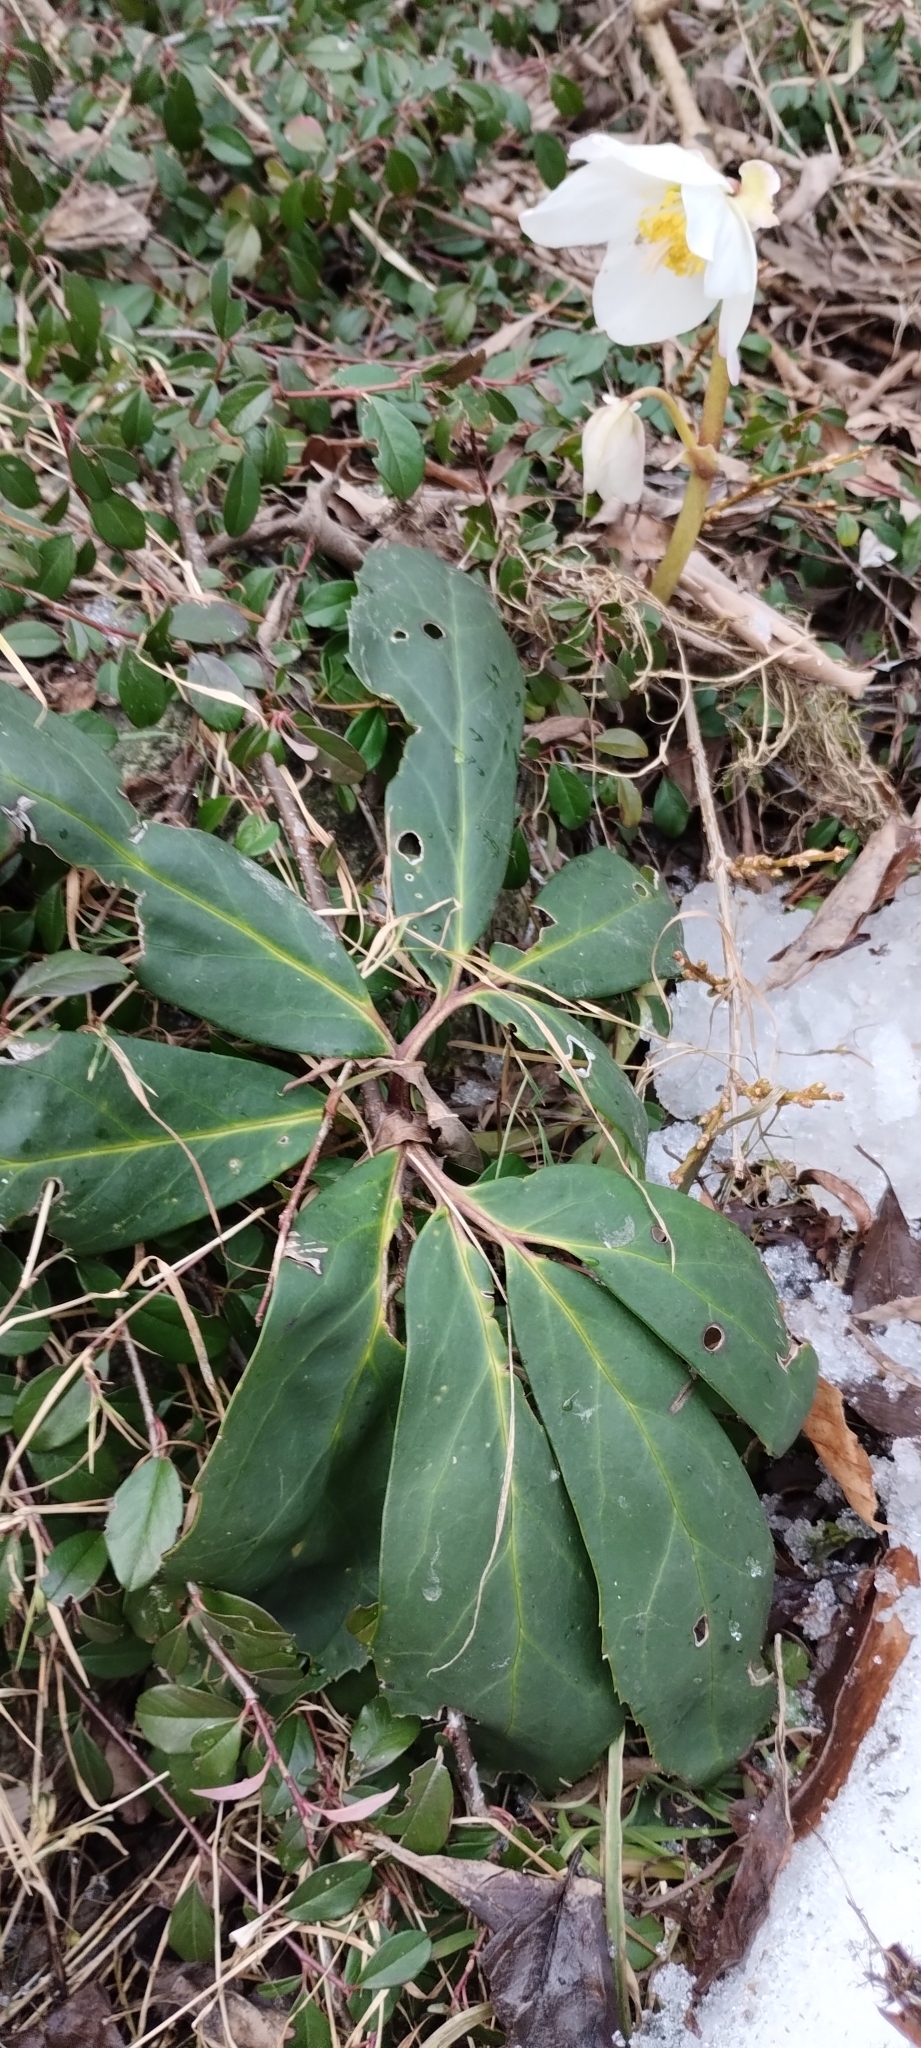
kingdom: Plantae
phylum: Tracheophyta
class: Magnoliopsida
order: Ranunculales
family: Ranunculaceae
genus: Helleborus
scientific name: Helleborus niger
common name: Black hellebore
